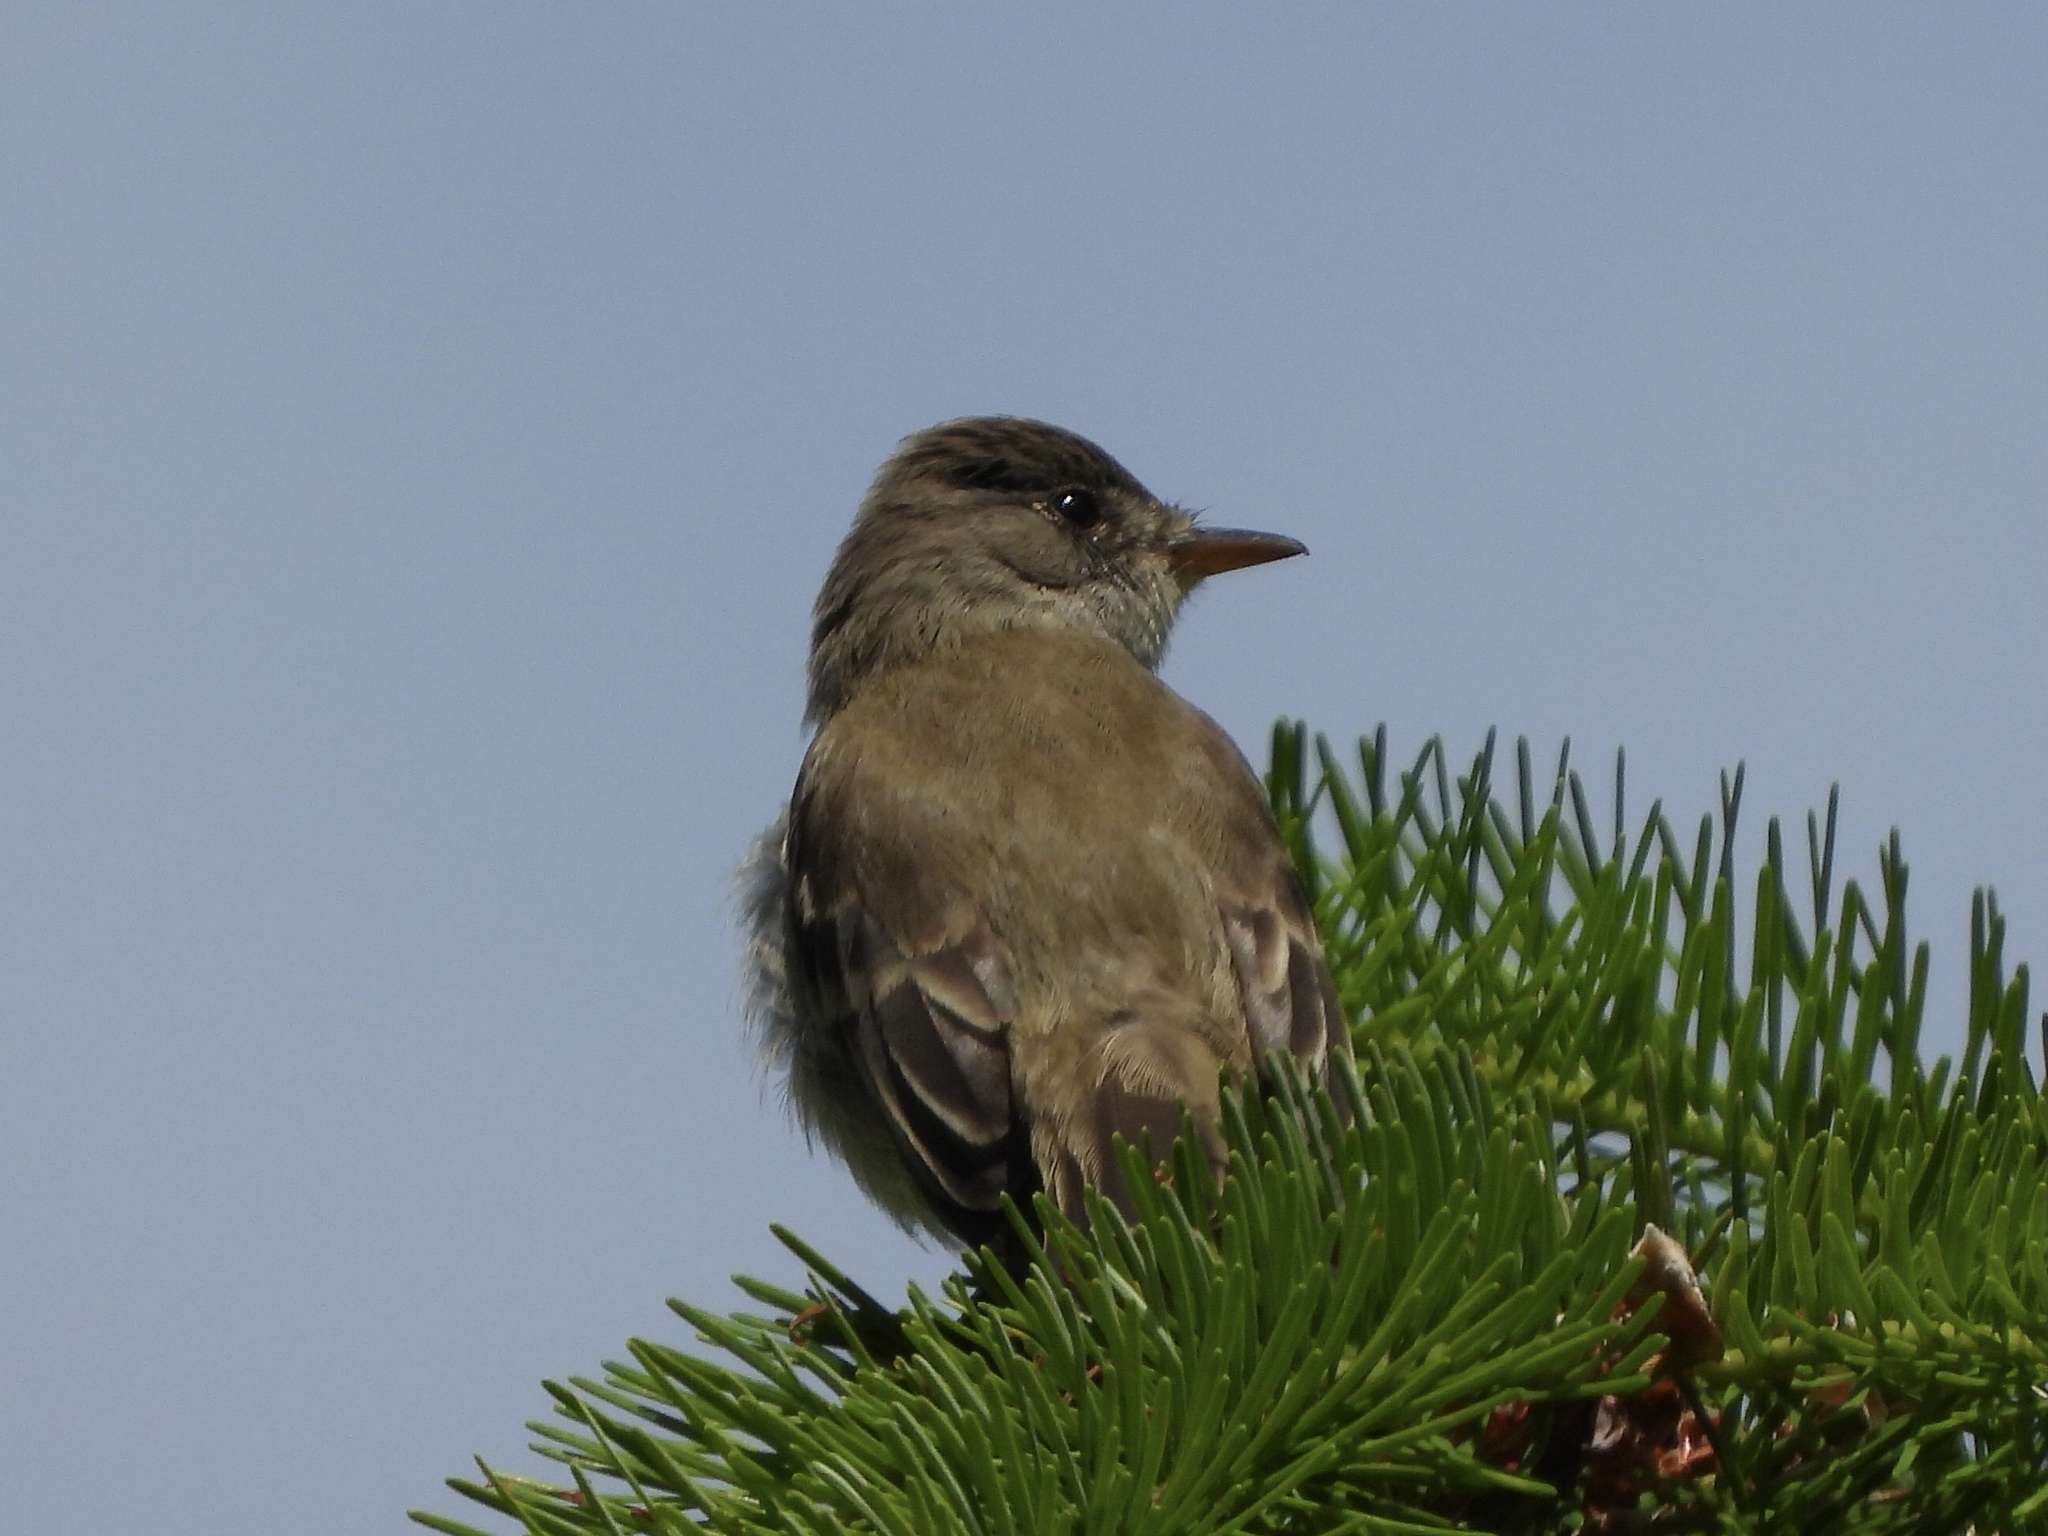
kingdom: Animalia
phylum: Chordata
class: Aves
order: Passeriformes
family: Tyrannidae
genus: Empidonax
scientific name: Empidonax traillii
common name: Willow flycatcher
